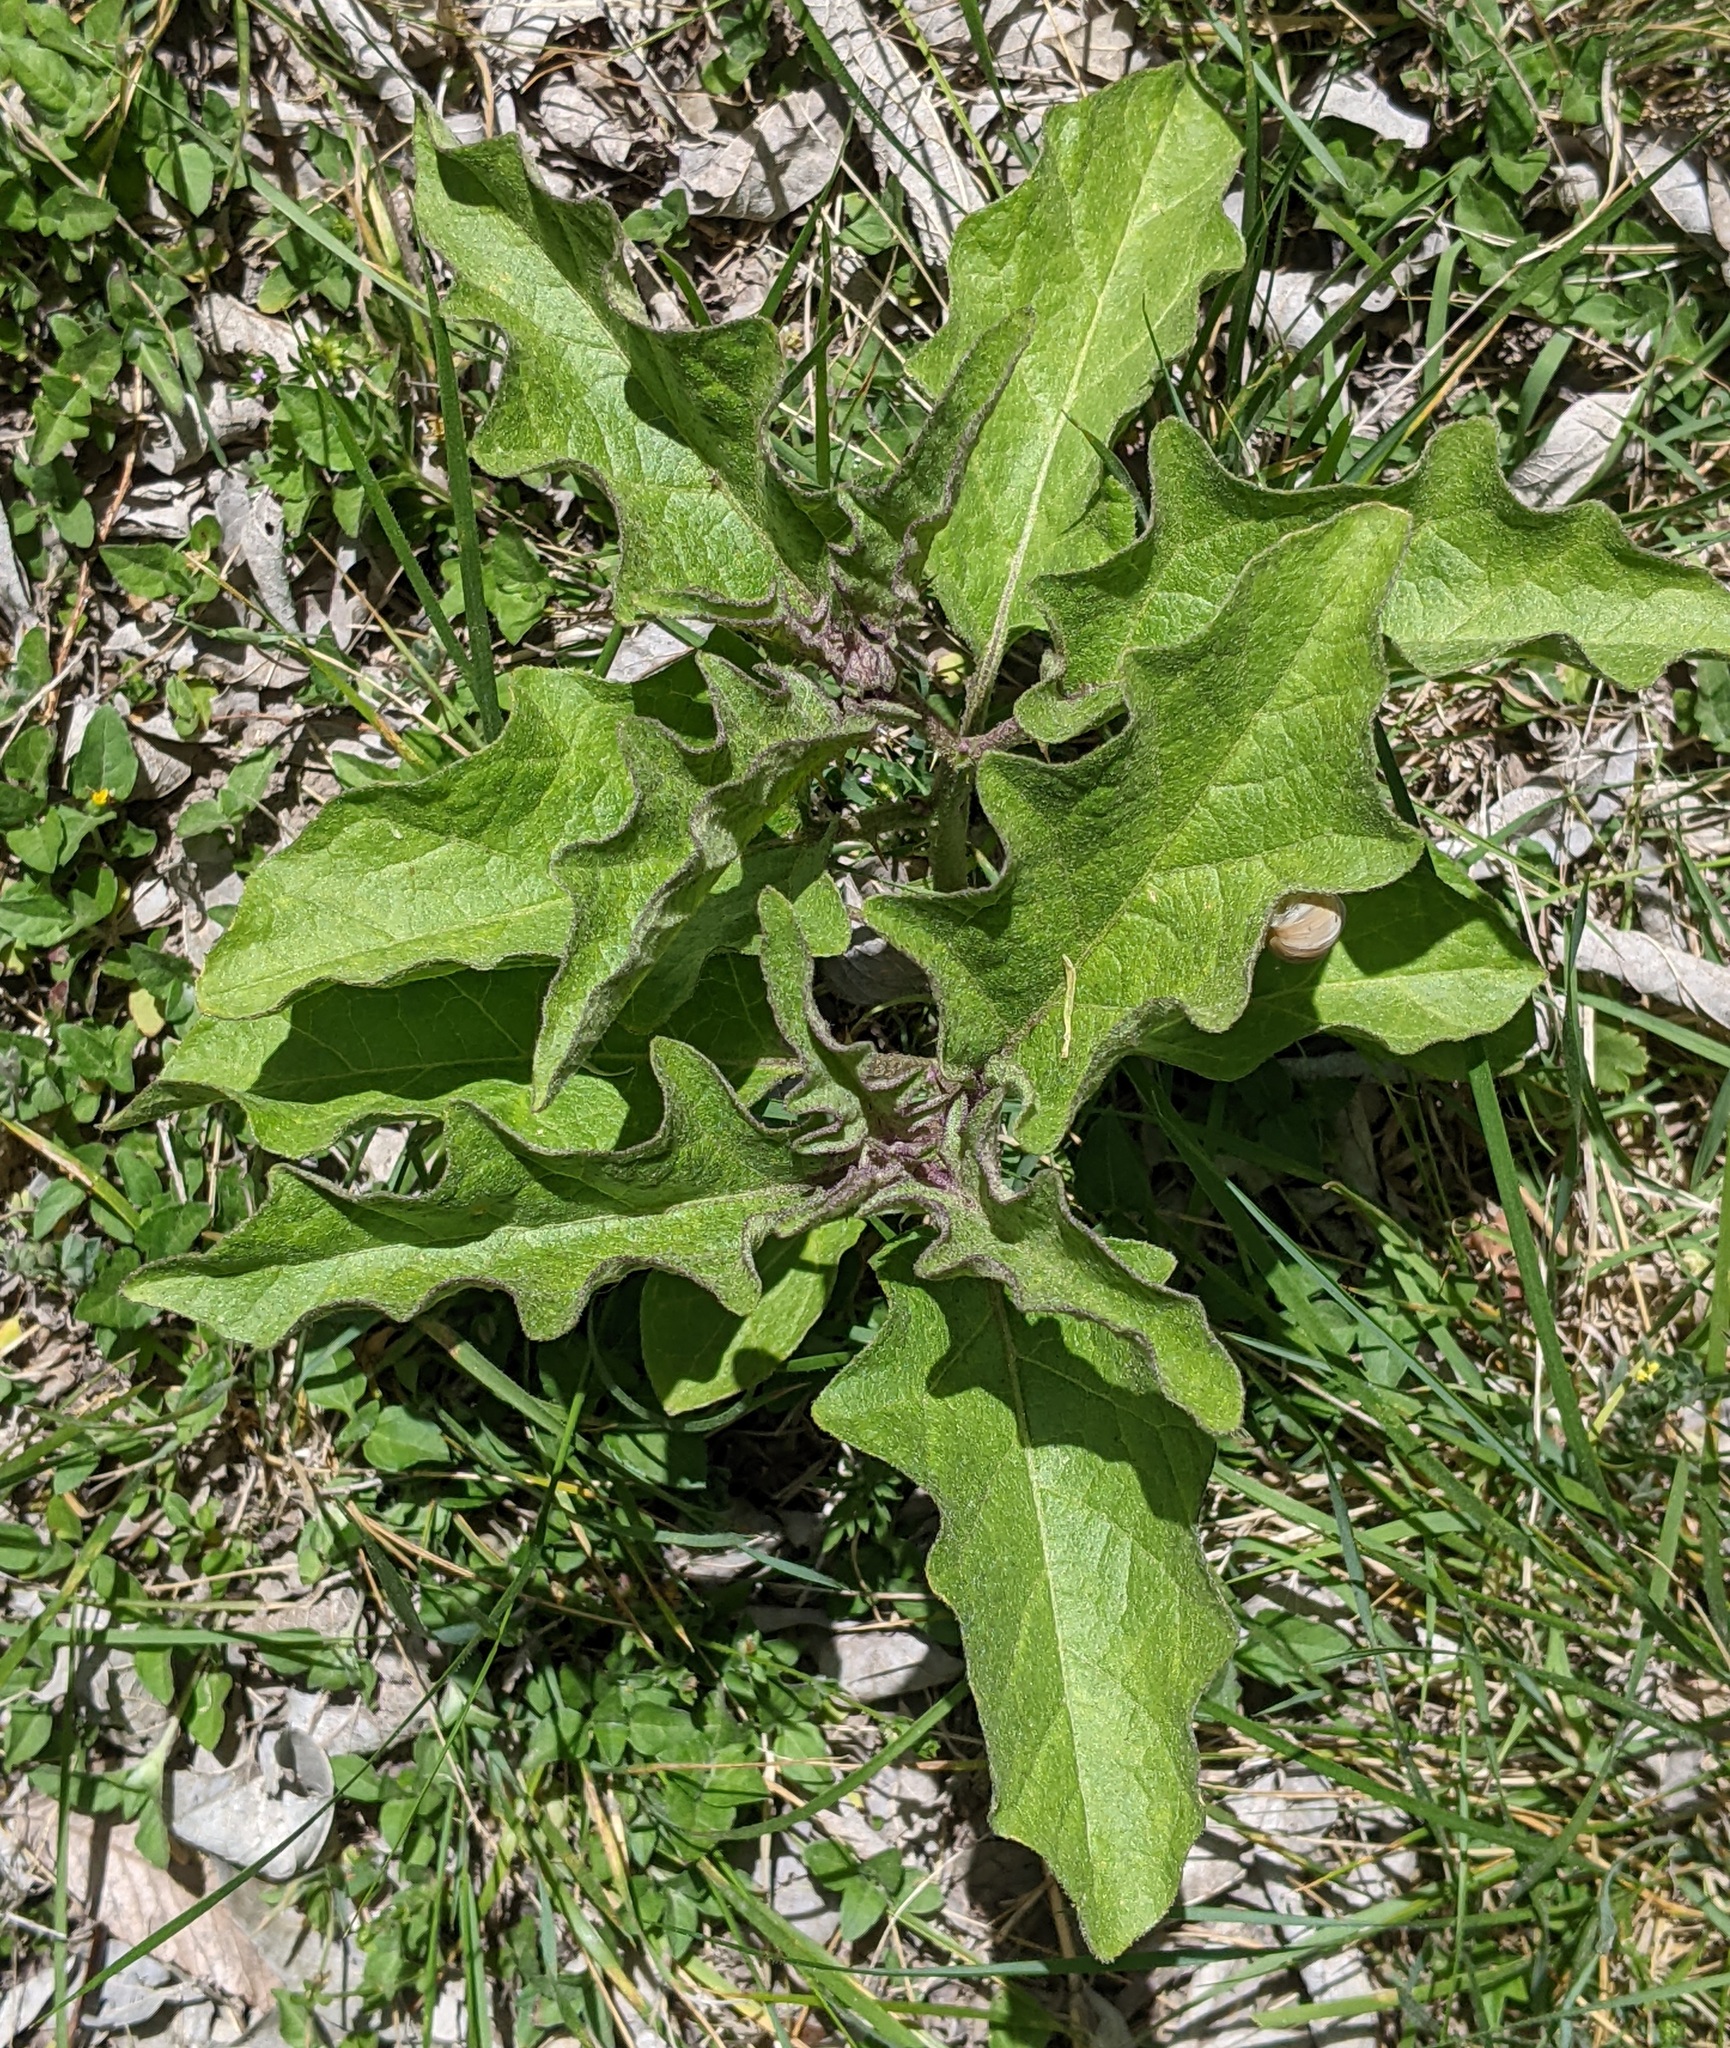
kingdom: Plantae
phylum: Tracheophyta
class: Magnoliopsida
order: Solanales
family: Solanaceae
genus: Solanum
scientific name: Solanum dimidiatum
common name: Carolina horse-nettle
